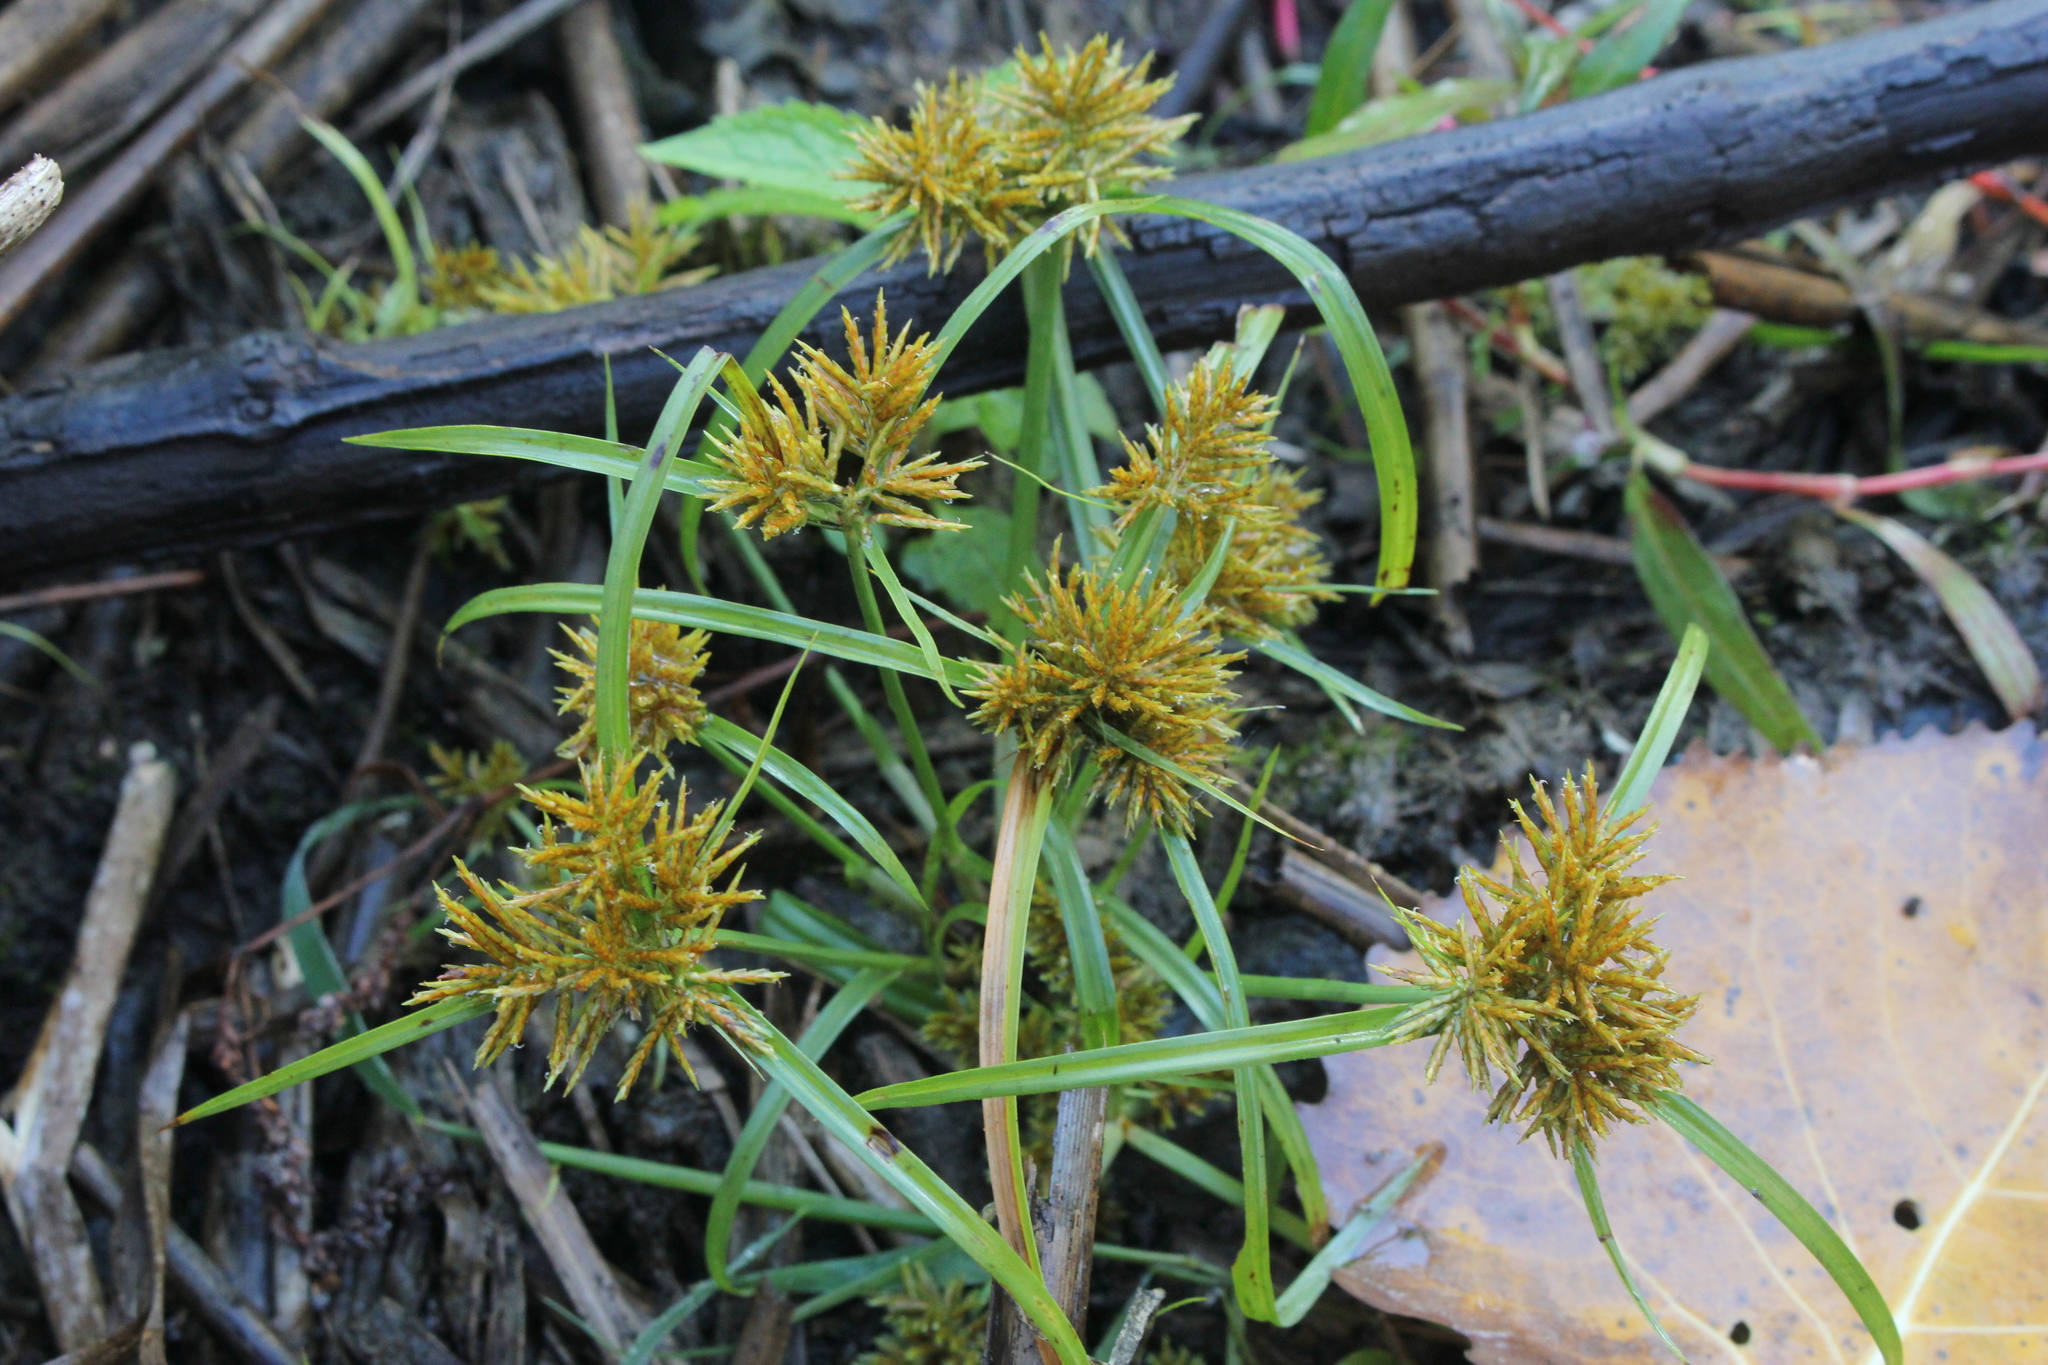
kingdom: Plantae
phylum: Tracheophyta
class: Liliopsida
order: Poales
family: Cyperaceae
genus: Cyperus
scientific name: Cyperus odoratus
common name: Fragrant flatsedge
